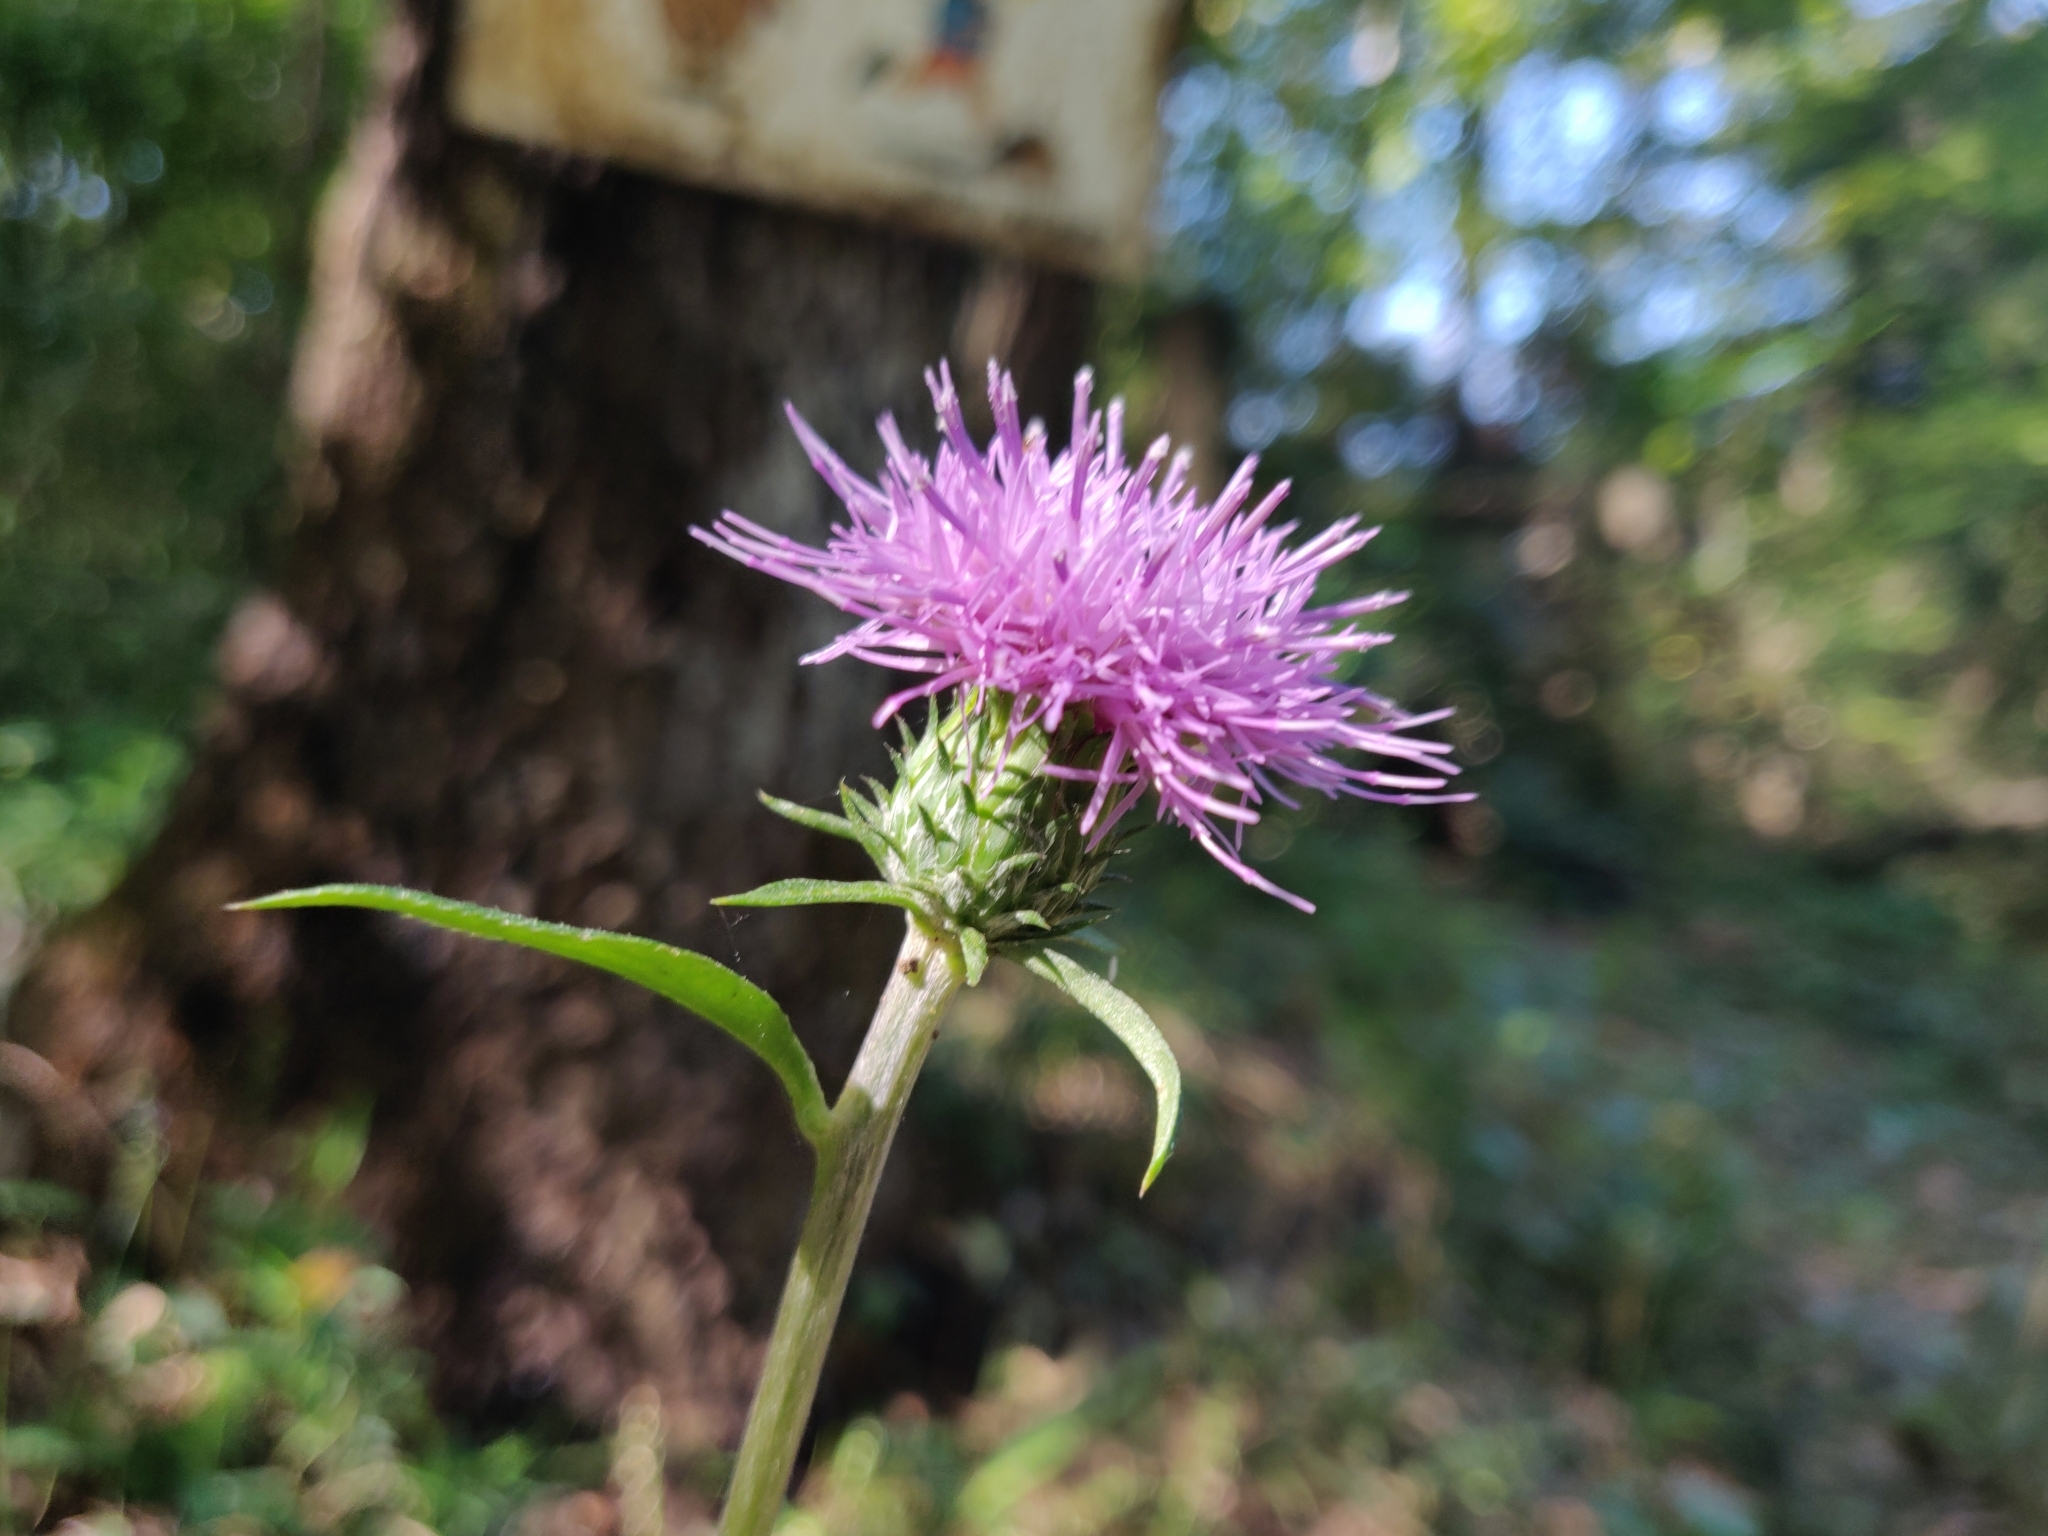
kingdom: Plantae
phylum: Tracheophyta
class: Magnoliopsida
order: Asterales
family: Asteraceae
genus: Cirsium
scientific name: Cirsium oligophyllum
